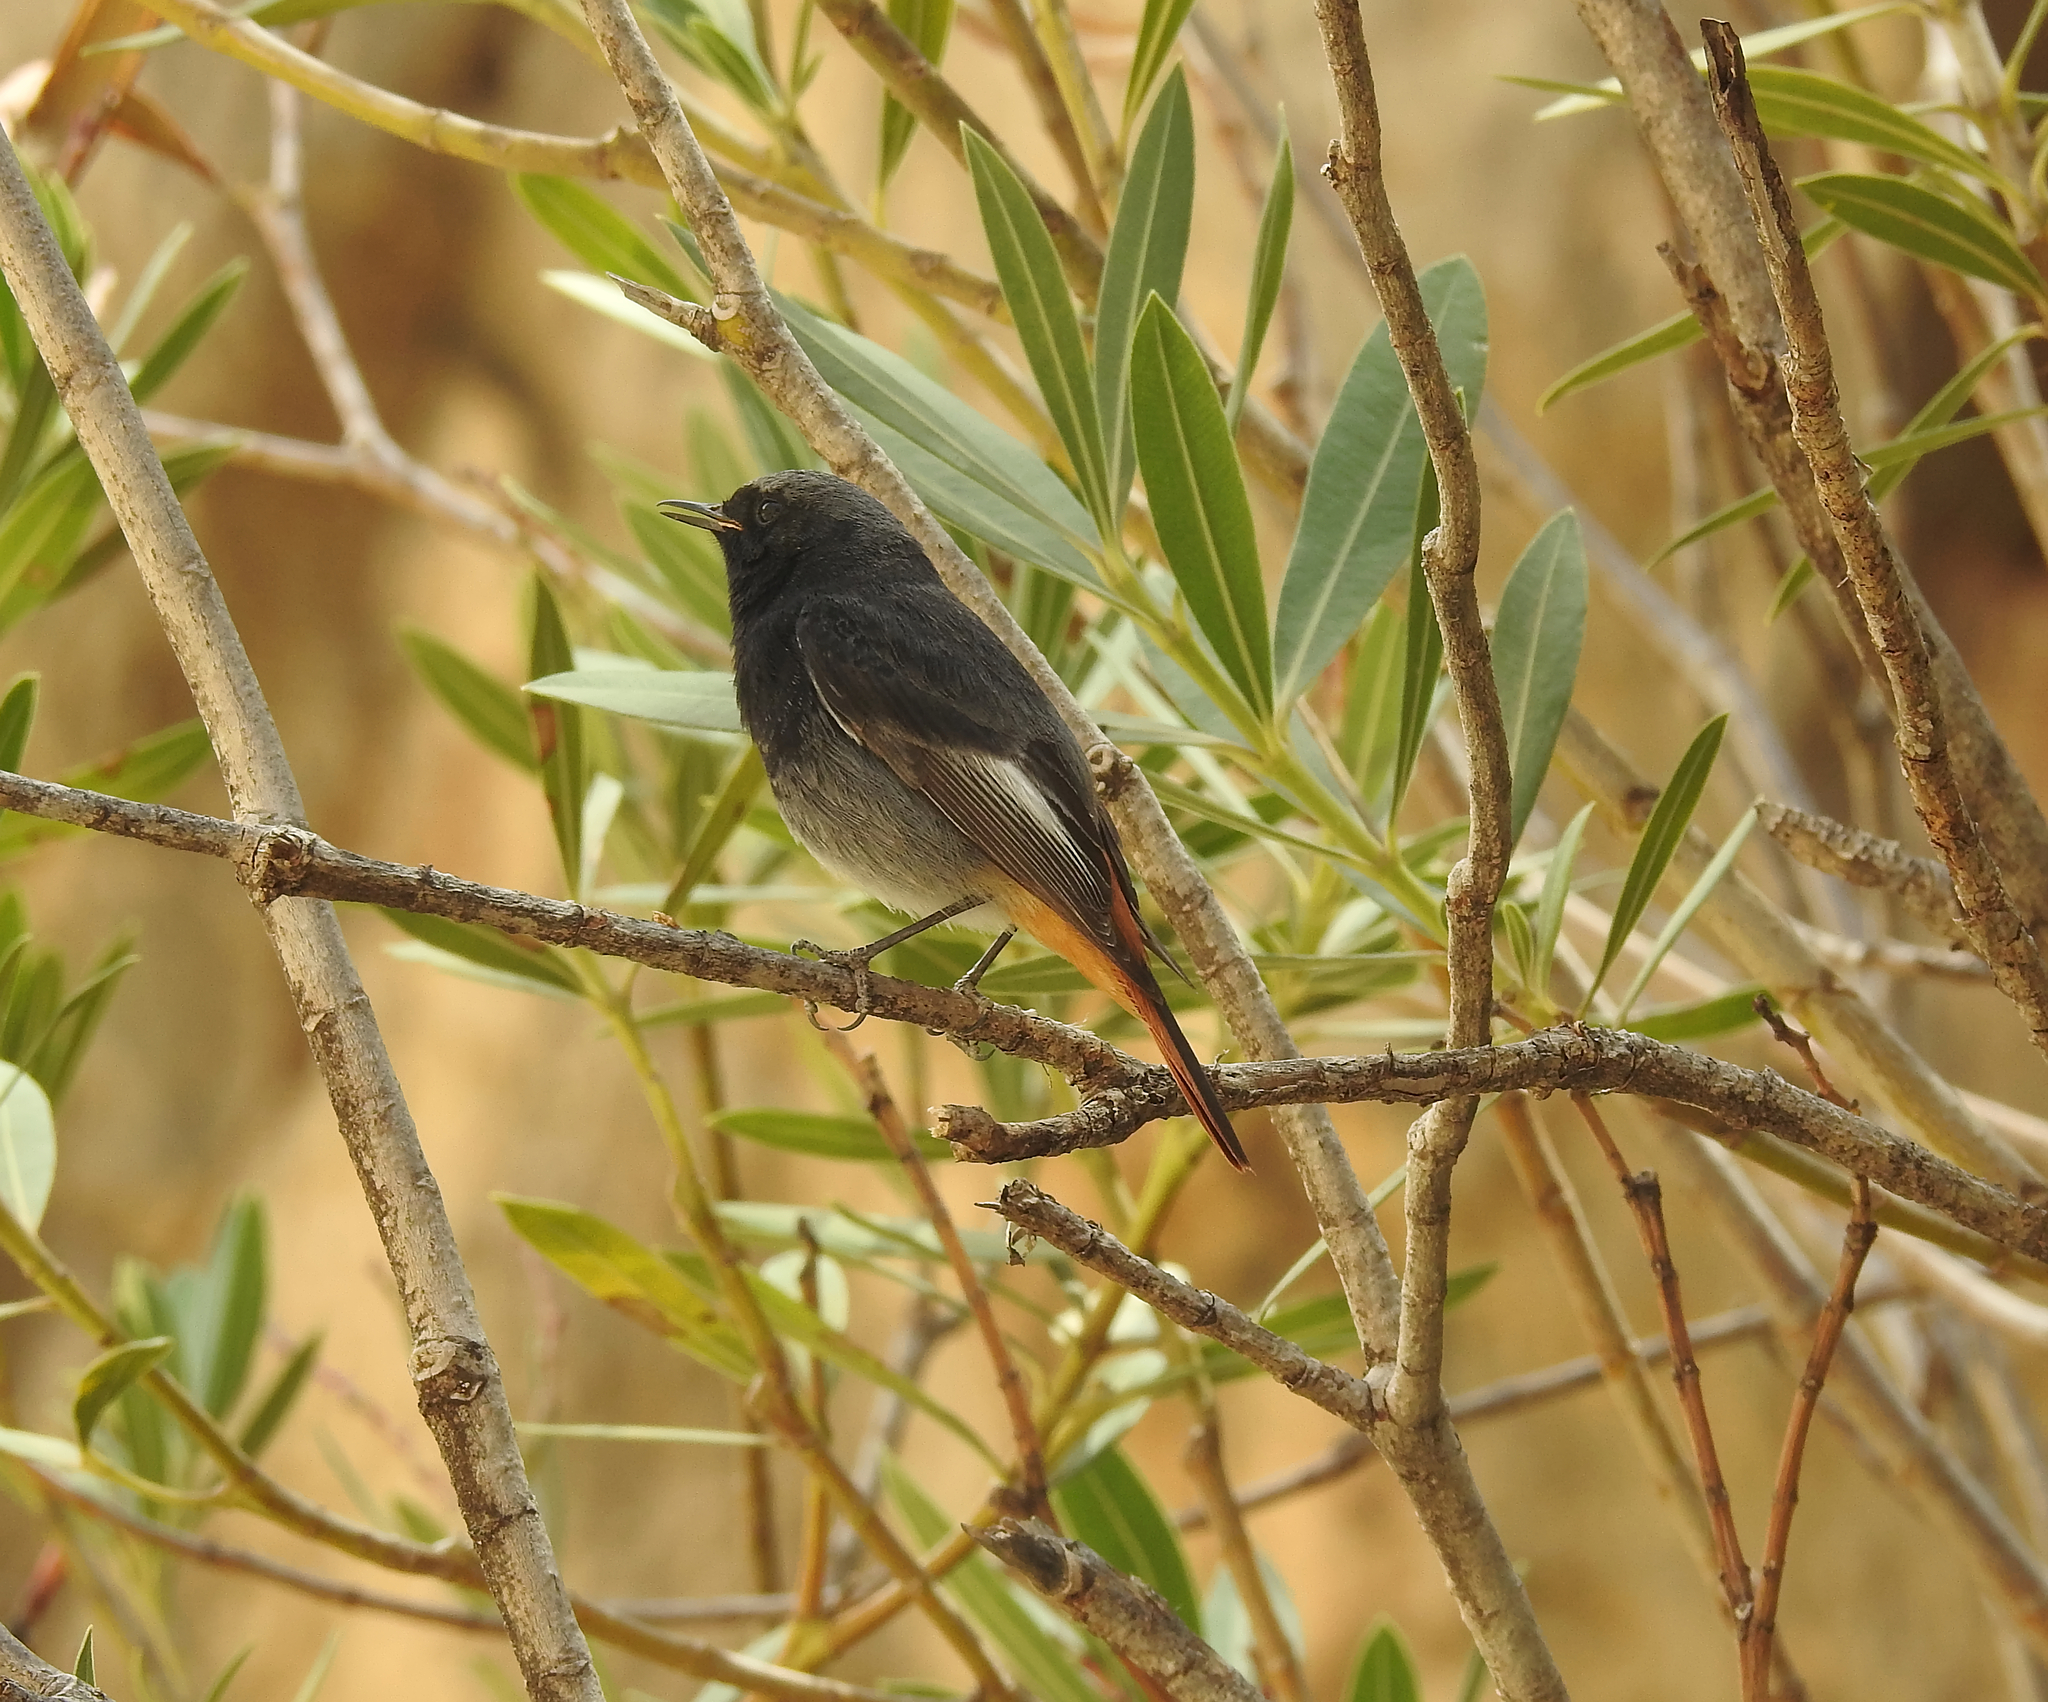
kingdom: Animalia
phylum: Chordata
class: Aves
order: Passeriformes
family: Muscicapidae
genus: Phoenicurus
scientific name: Phoenicurus ochruros
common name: Black redstart
